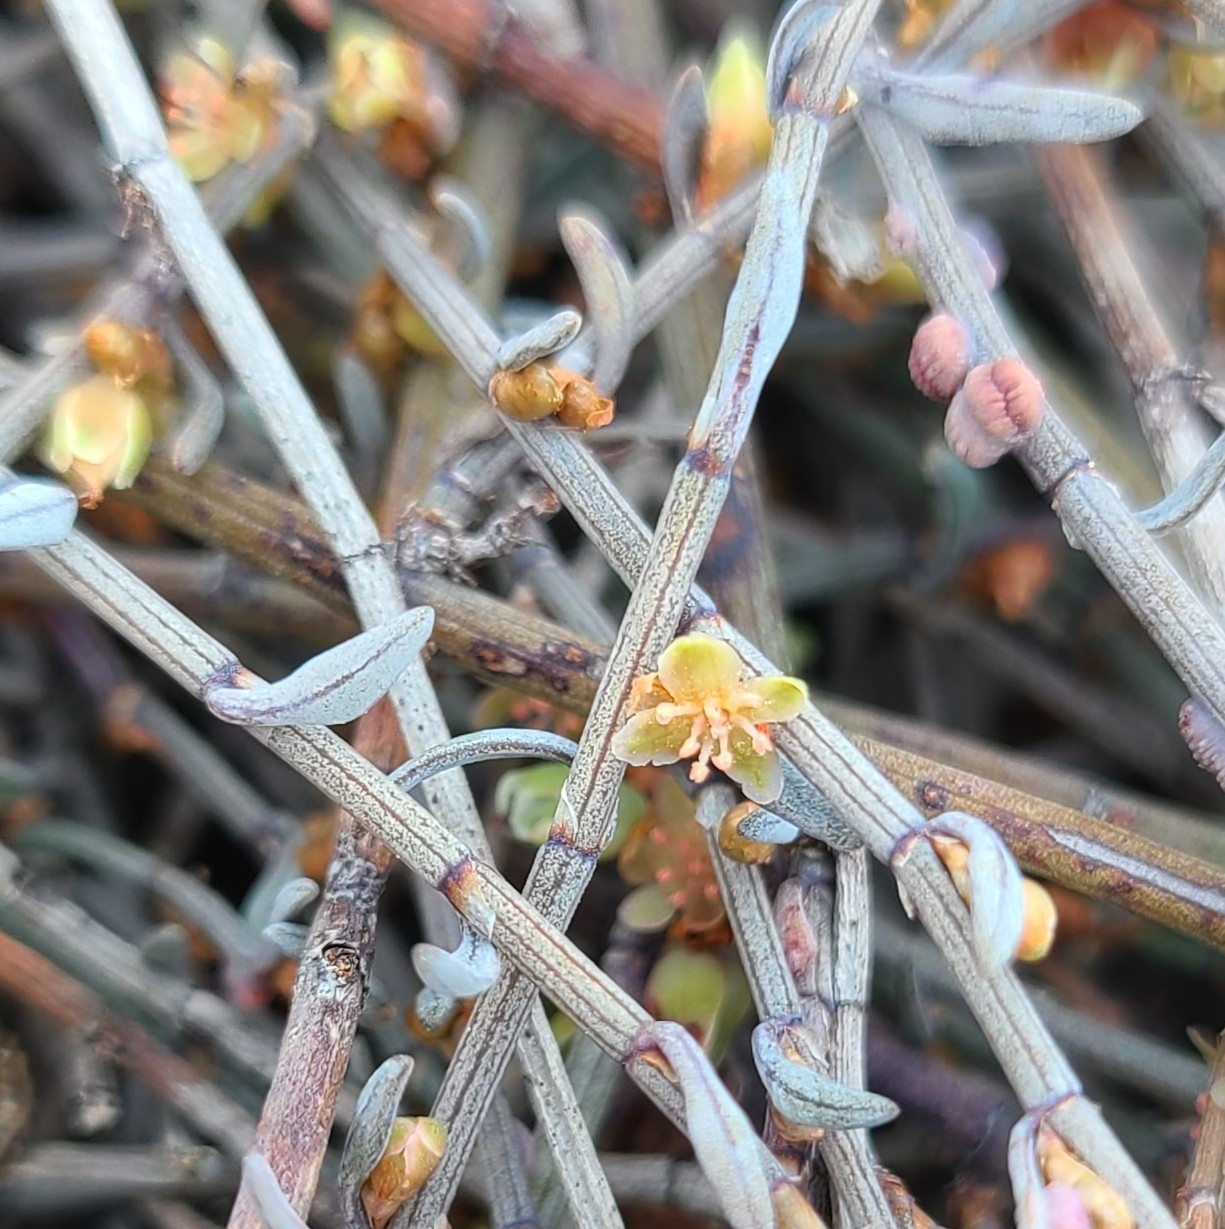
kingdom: Plantae
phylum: Tracheophyta
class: Magnoliopsida
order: Caryophyllales
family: Polygonaceae
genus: Muehlenbeckia
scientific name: Muehlenbeckia ephedroides
